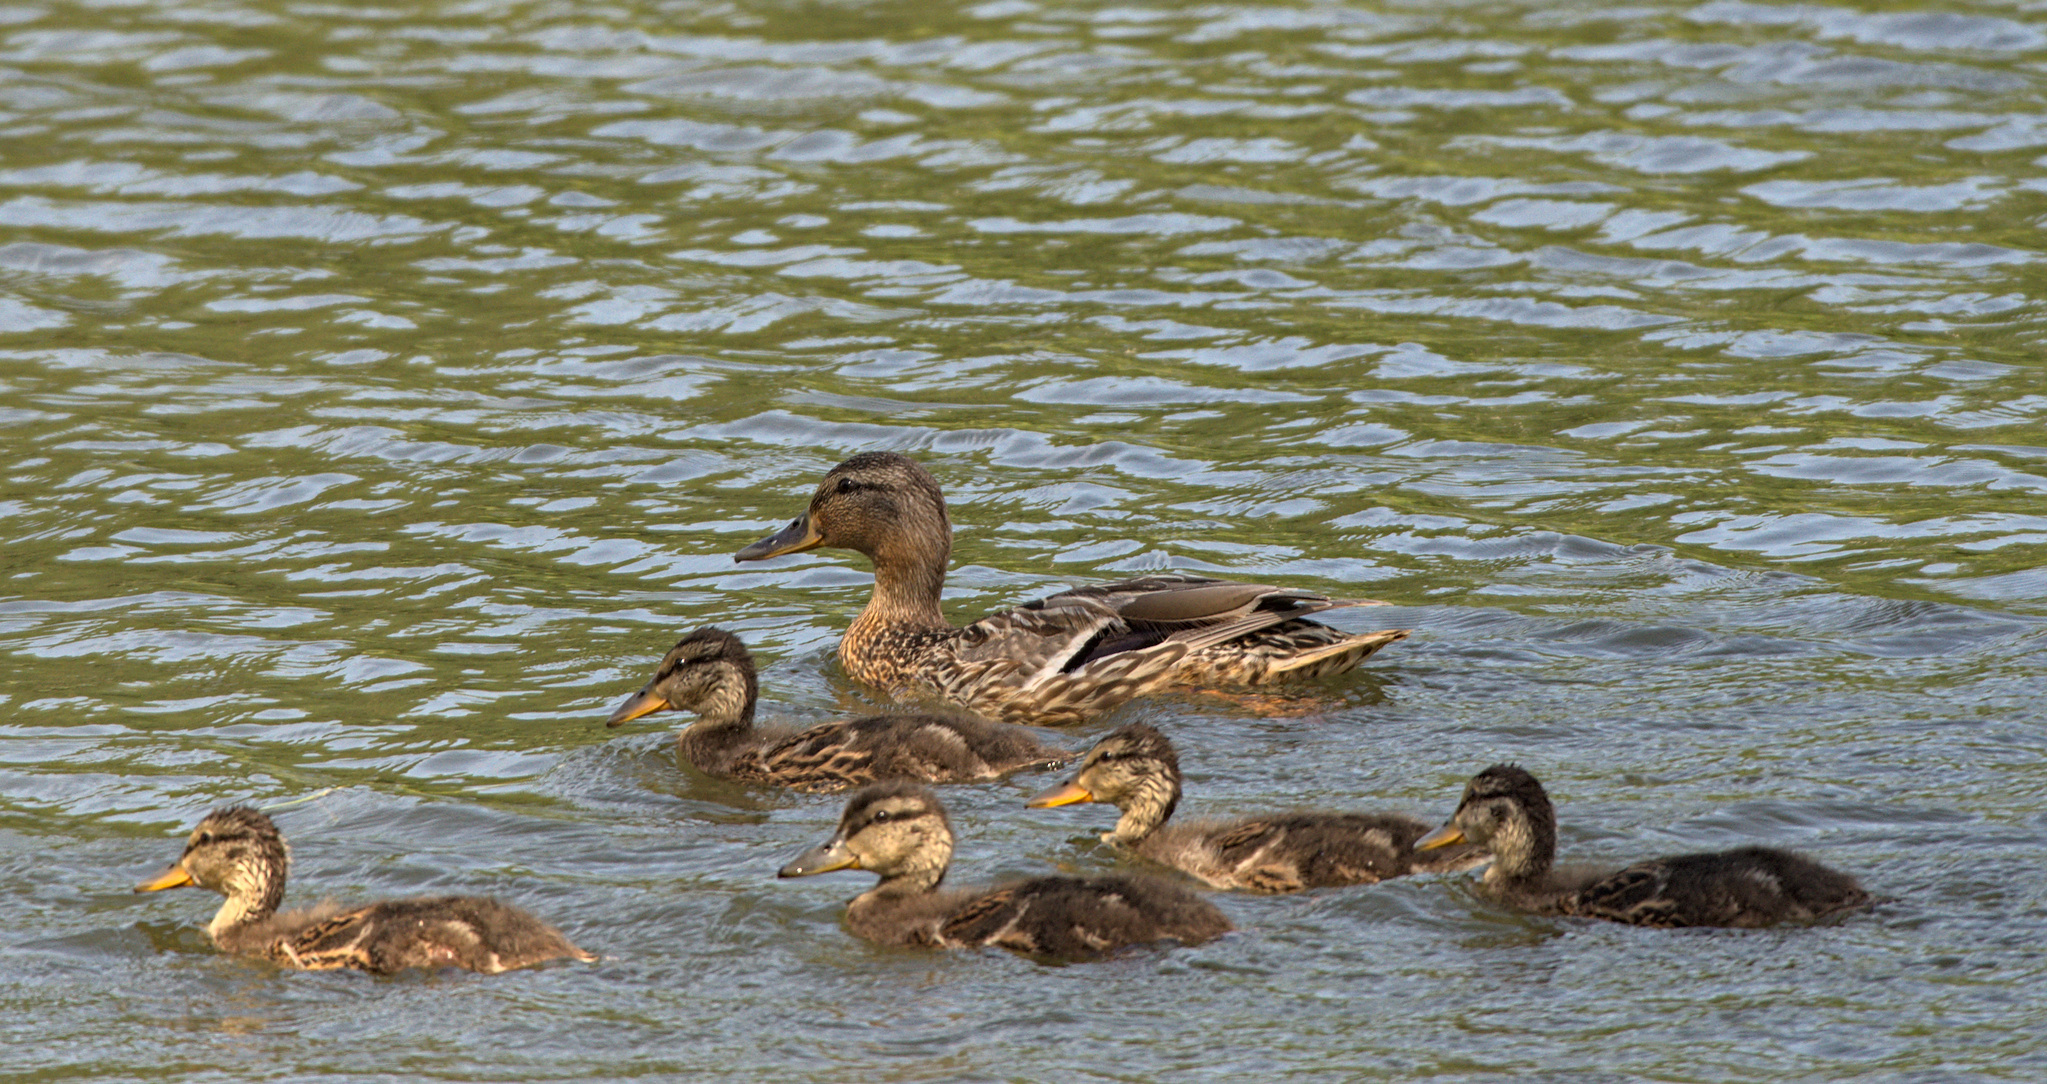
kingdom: Animalia
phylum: Chordata
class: Aves
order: Anseriformes
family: Anatidae
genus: Anas
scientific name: Anas platyrhynchos
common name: Mallard
